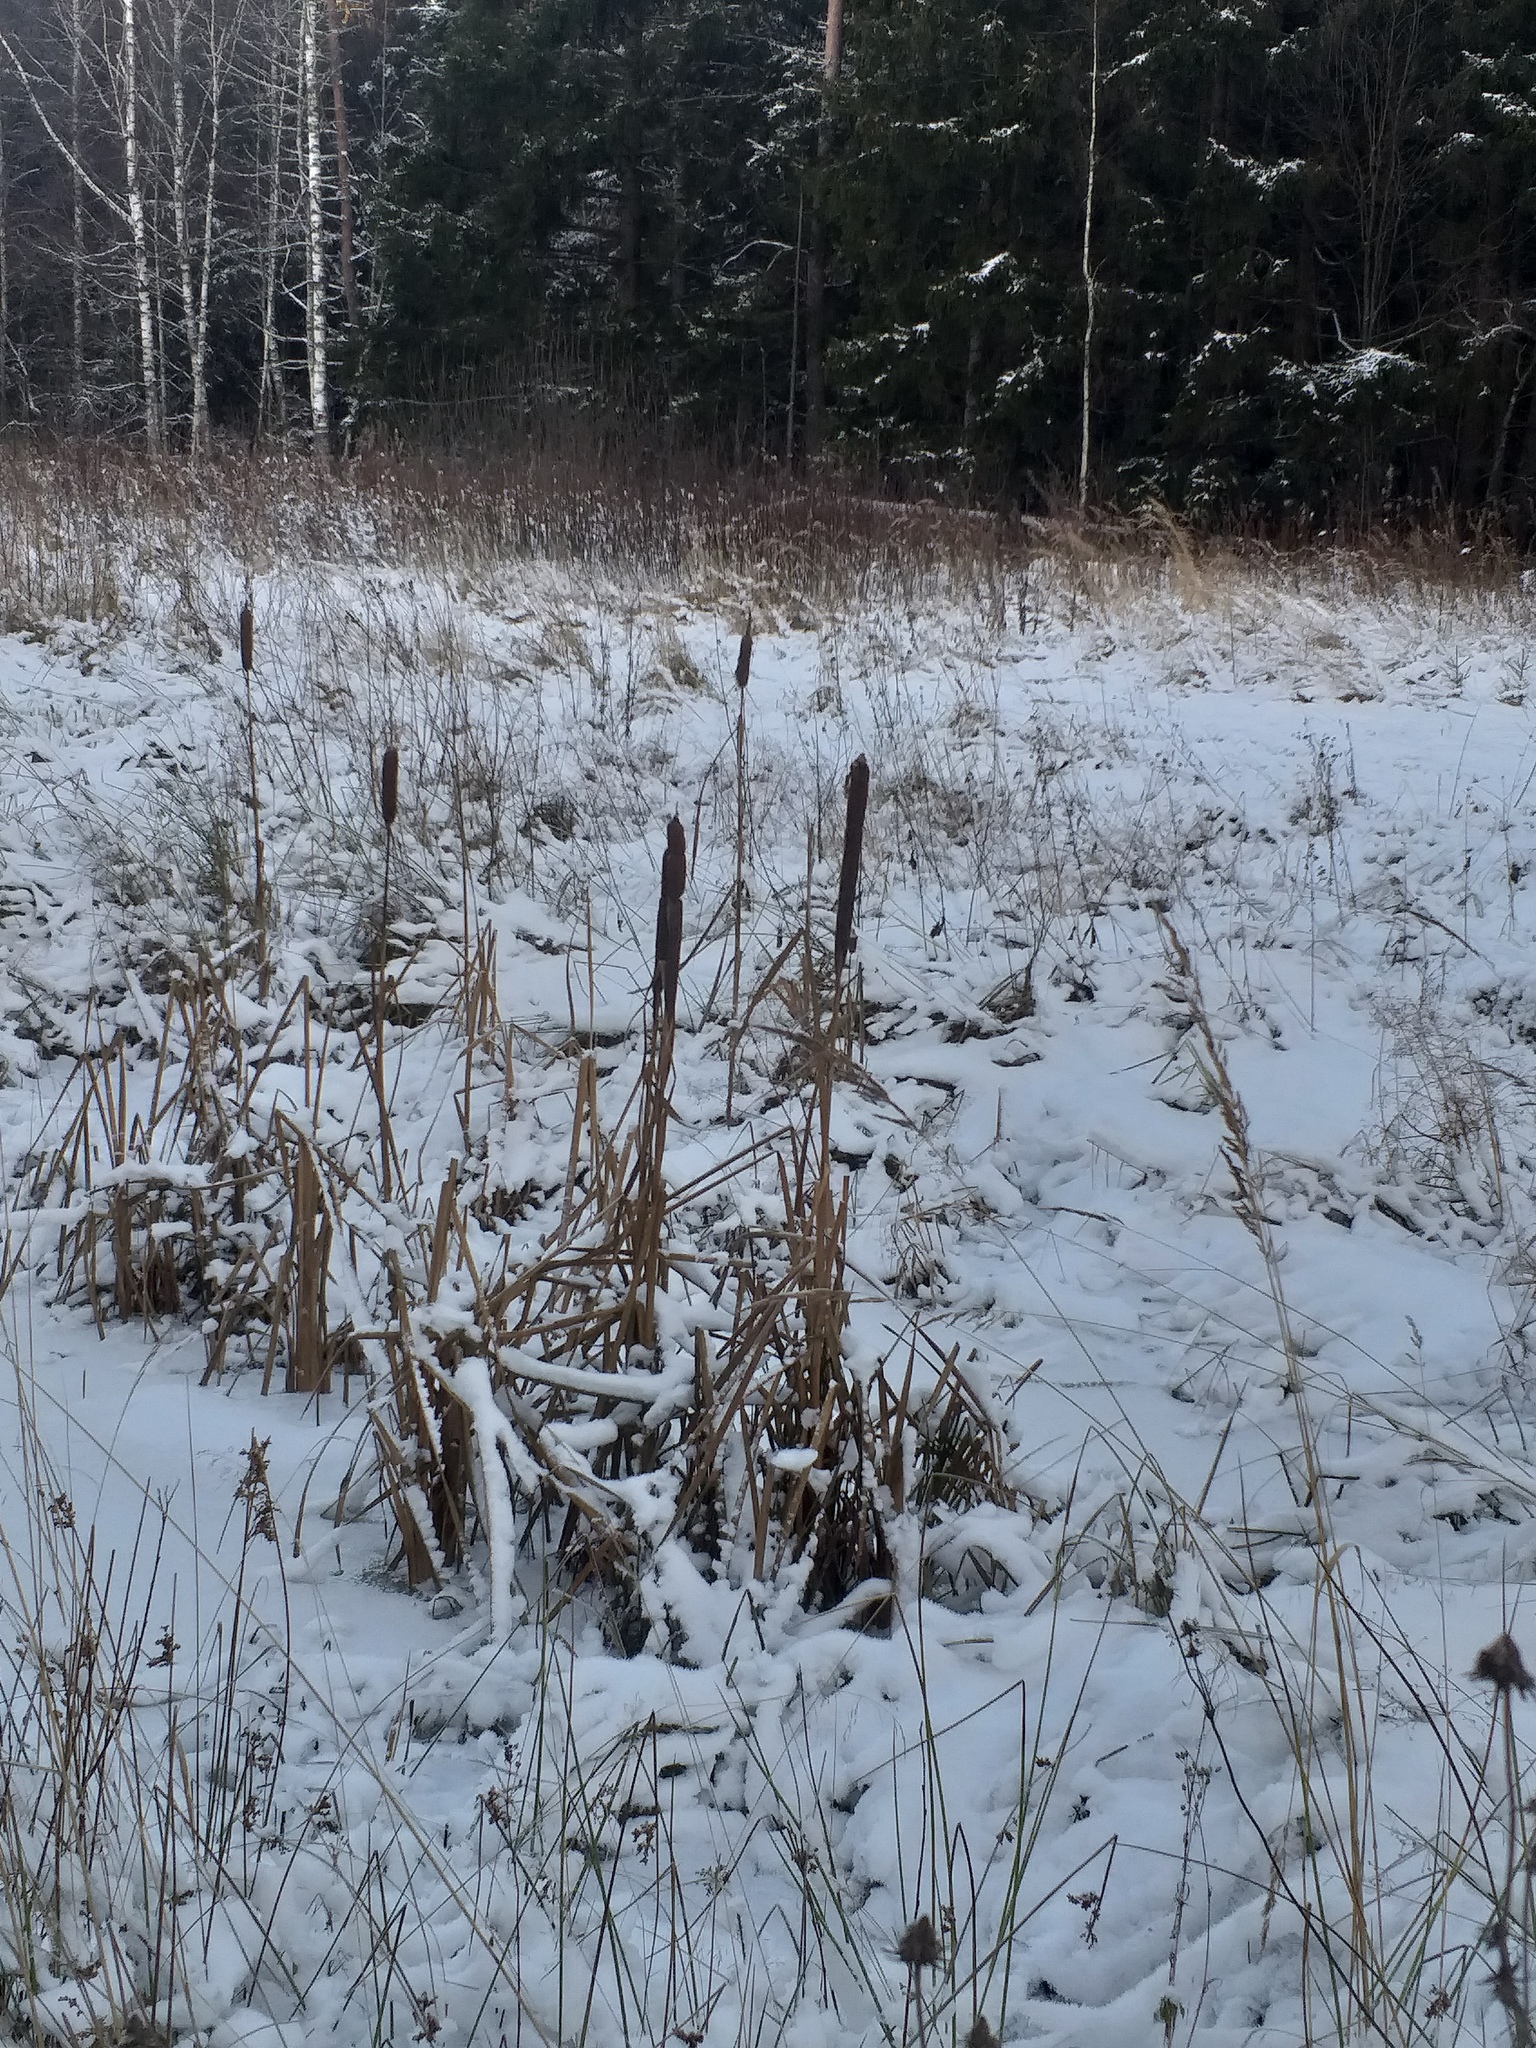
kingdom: Plantae
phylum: Tracheophyta
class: Liliopsida
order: Poales
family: Typhaceae
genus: Typha
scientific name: Typha latifolia
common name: Broadleaf cattail
